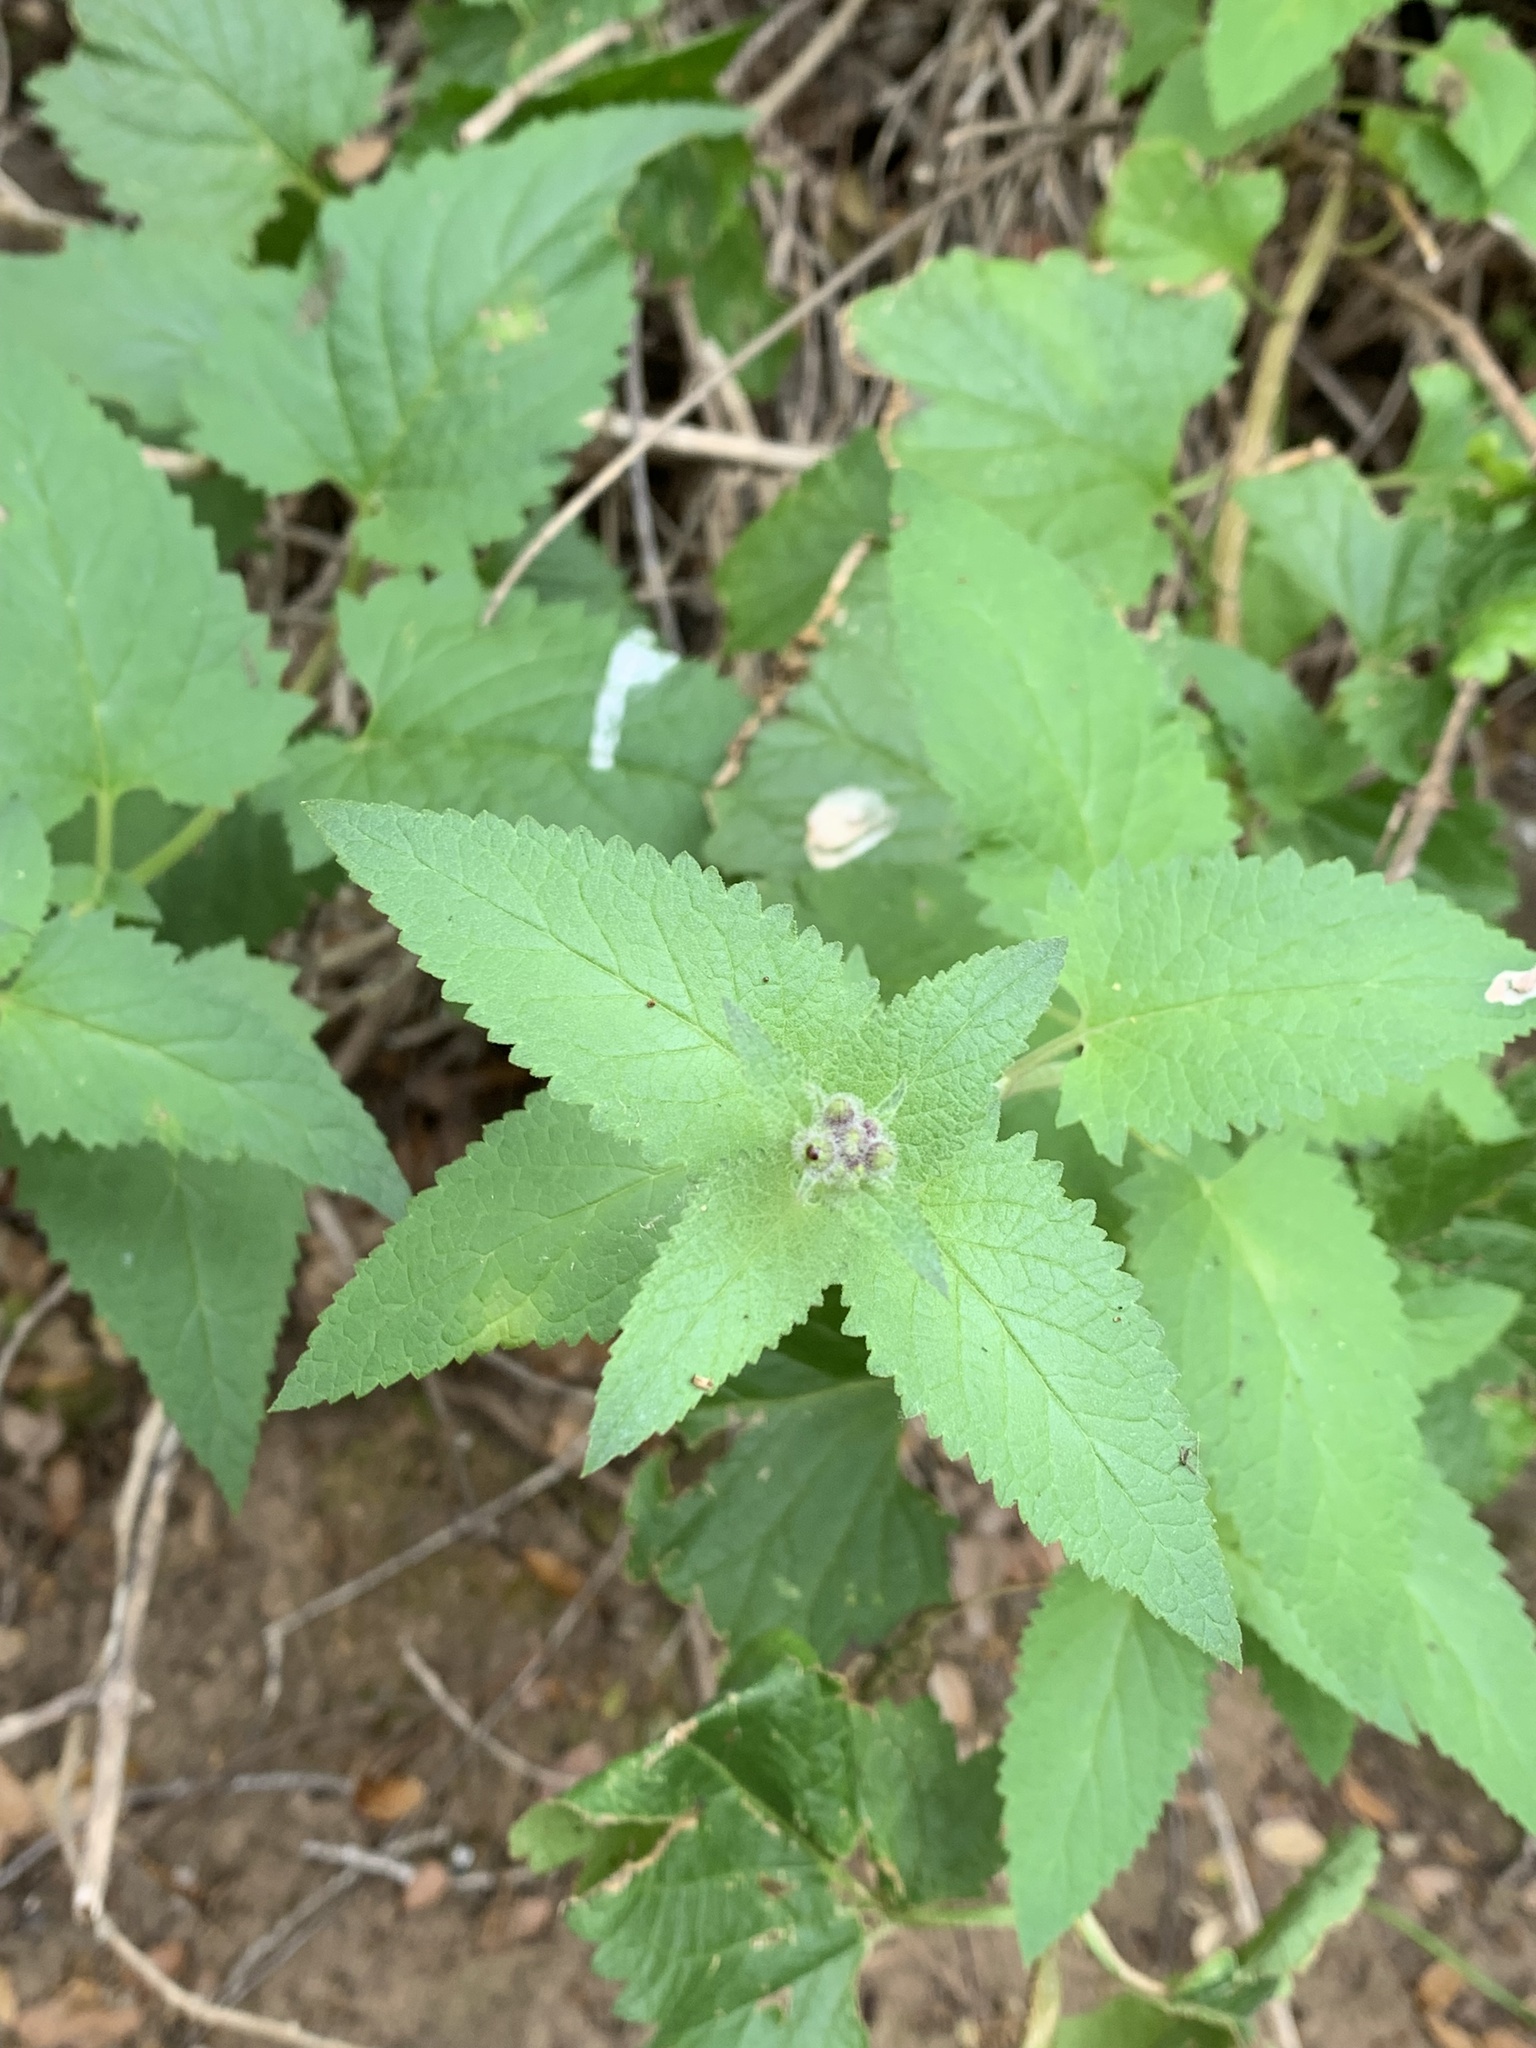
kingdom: Plantae
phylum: Tracheophyta
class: Magnoliopsida
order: Lamiales
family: Scrophulariaceae
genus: Scrophularia
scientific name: Scrophularia villosa
